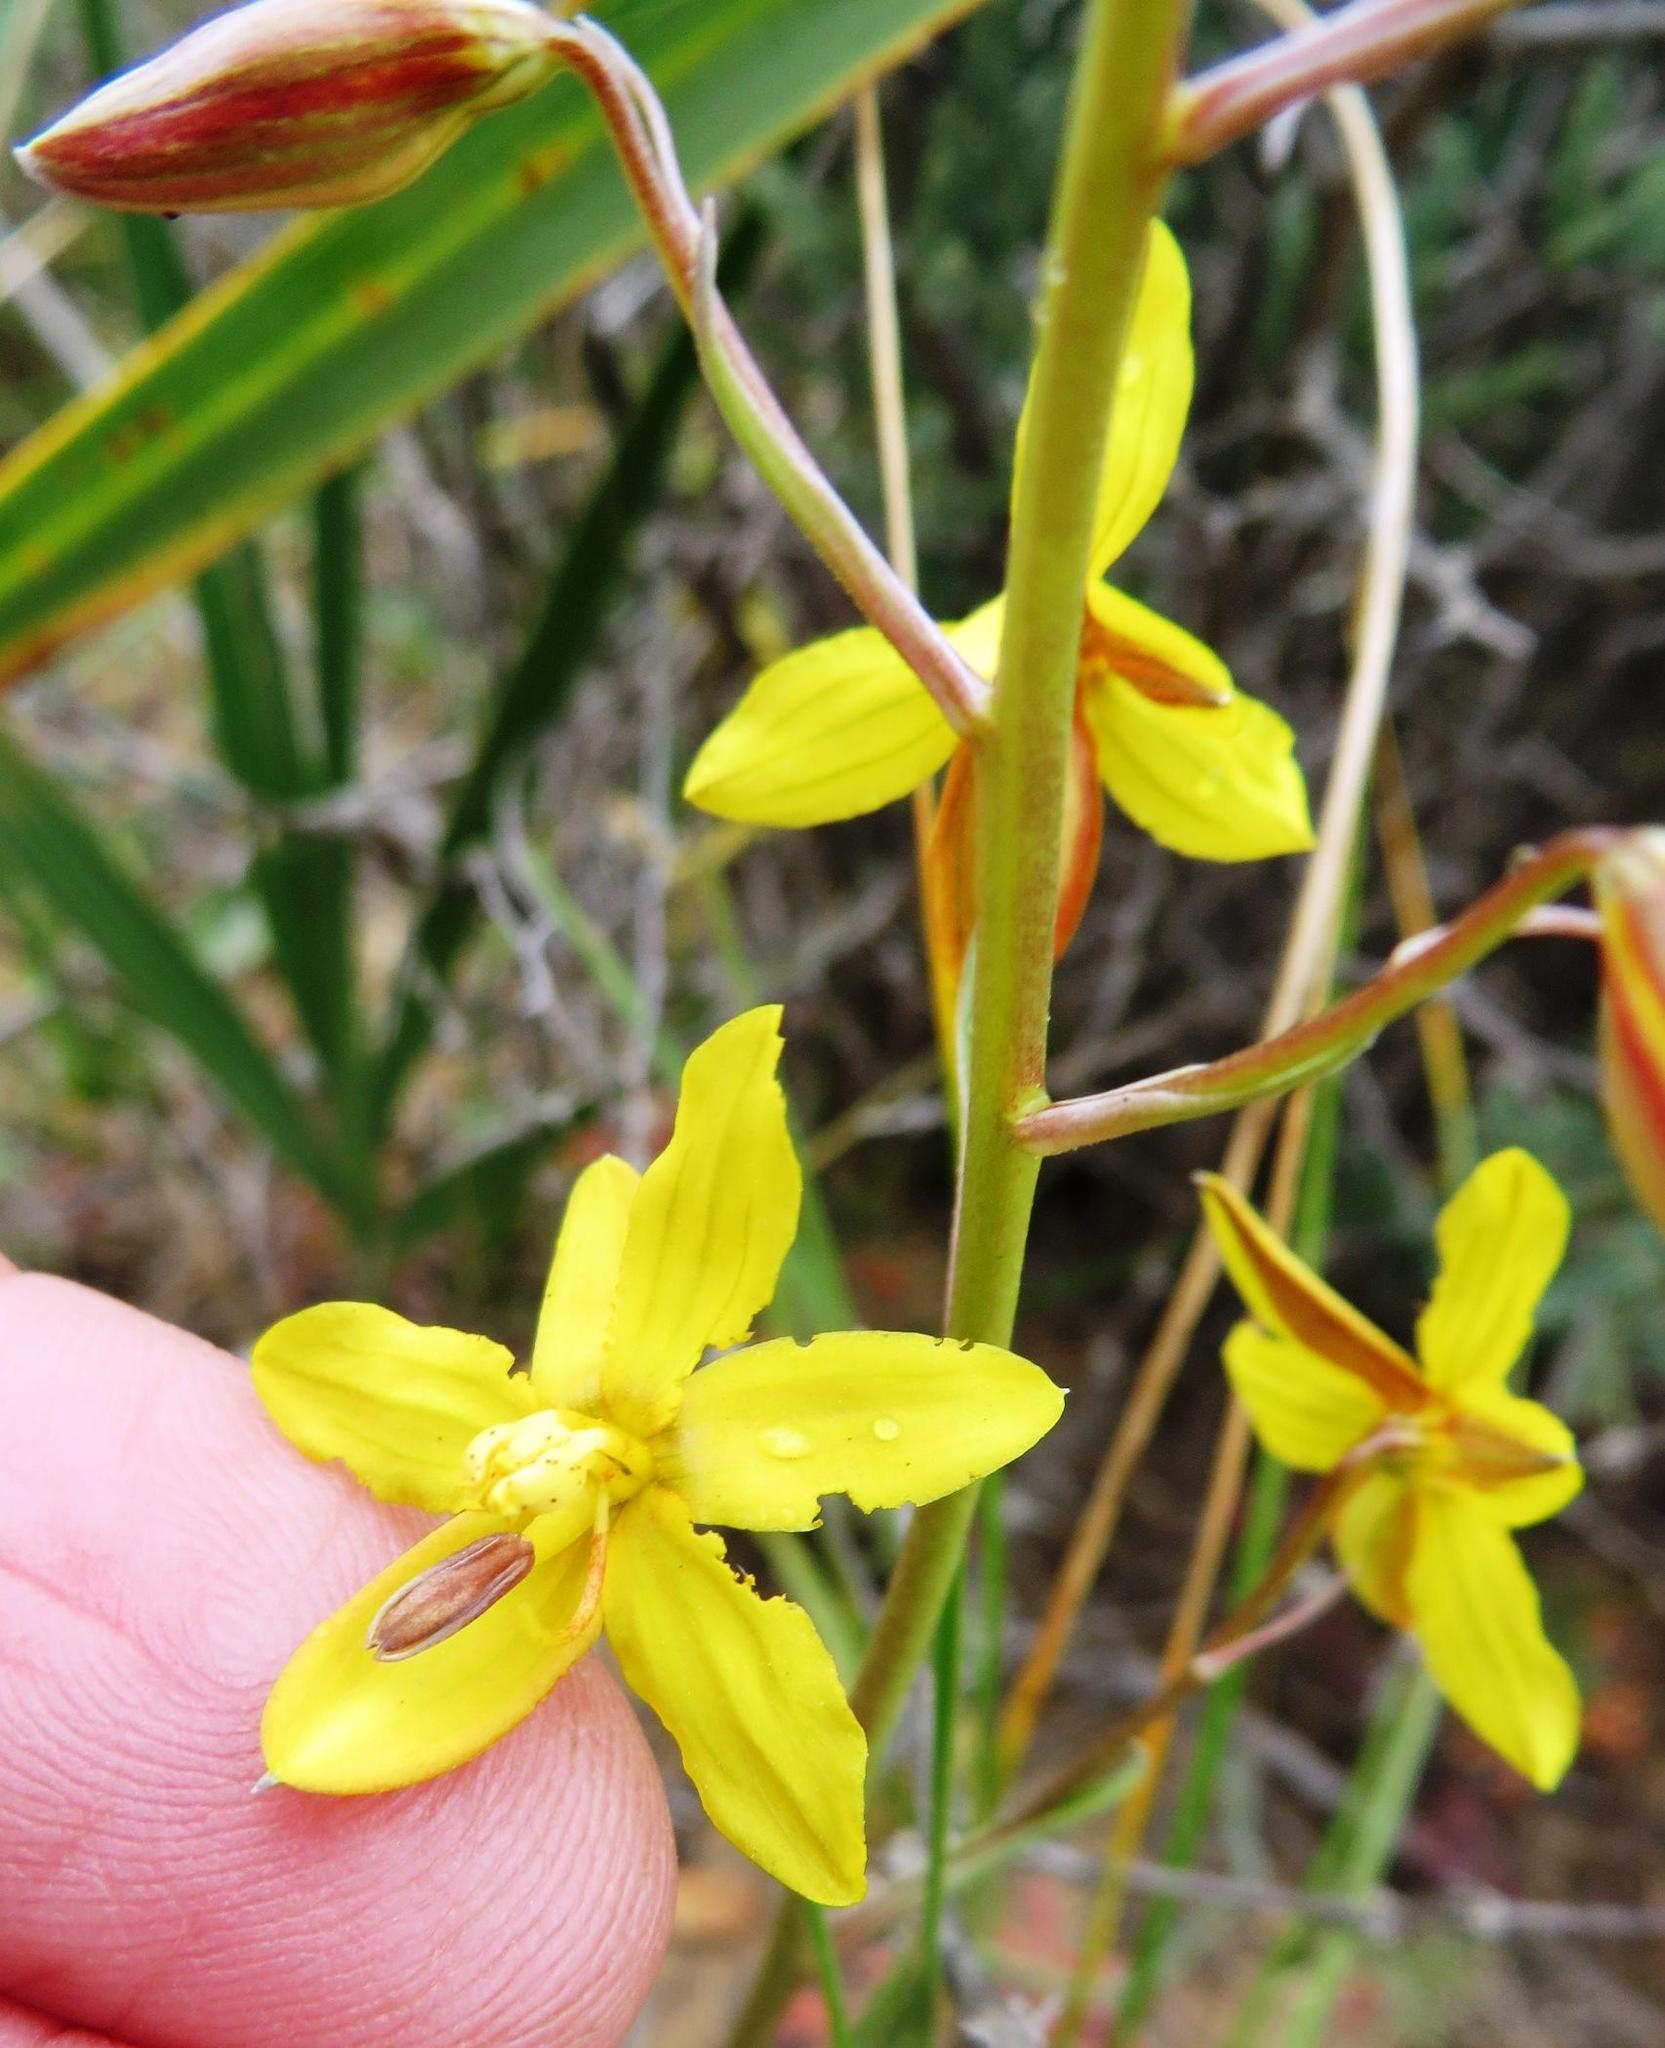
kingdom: Plantae
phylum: Tracheophyta
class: Liliopsida
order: Asparagales
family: Tecophilaeaceae
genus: Cyanella
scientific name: Cyanella lutea
